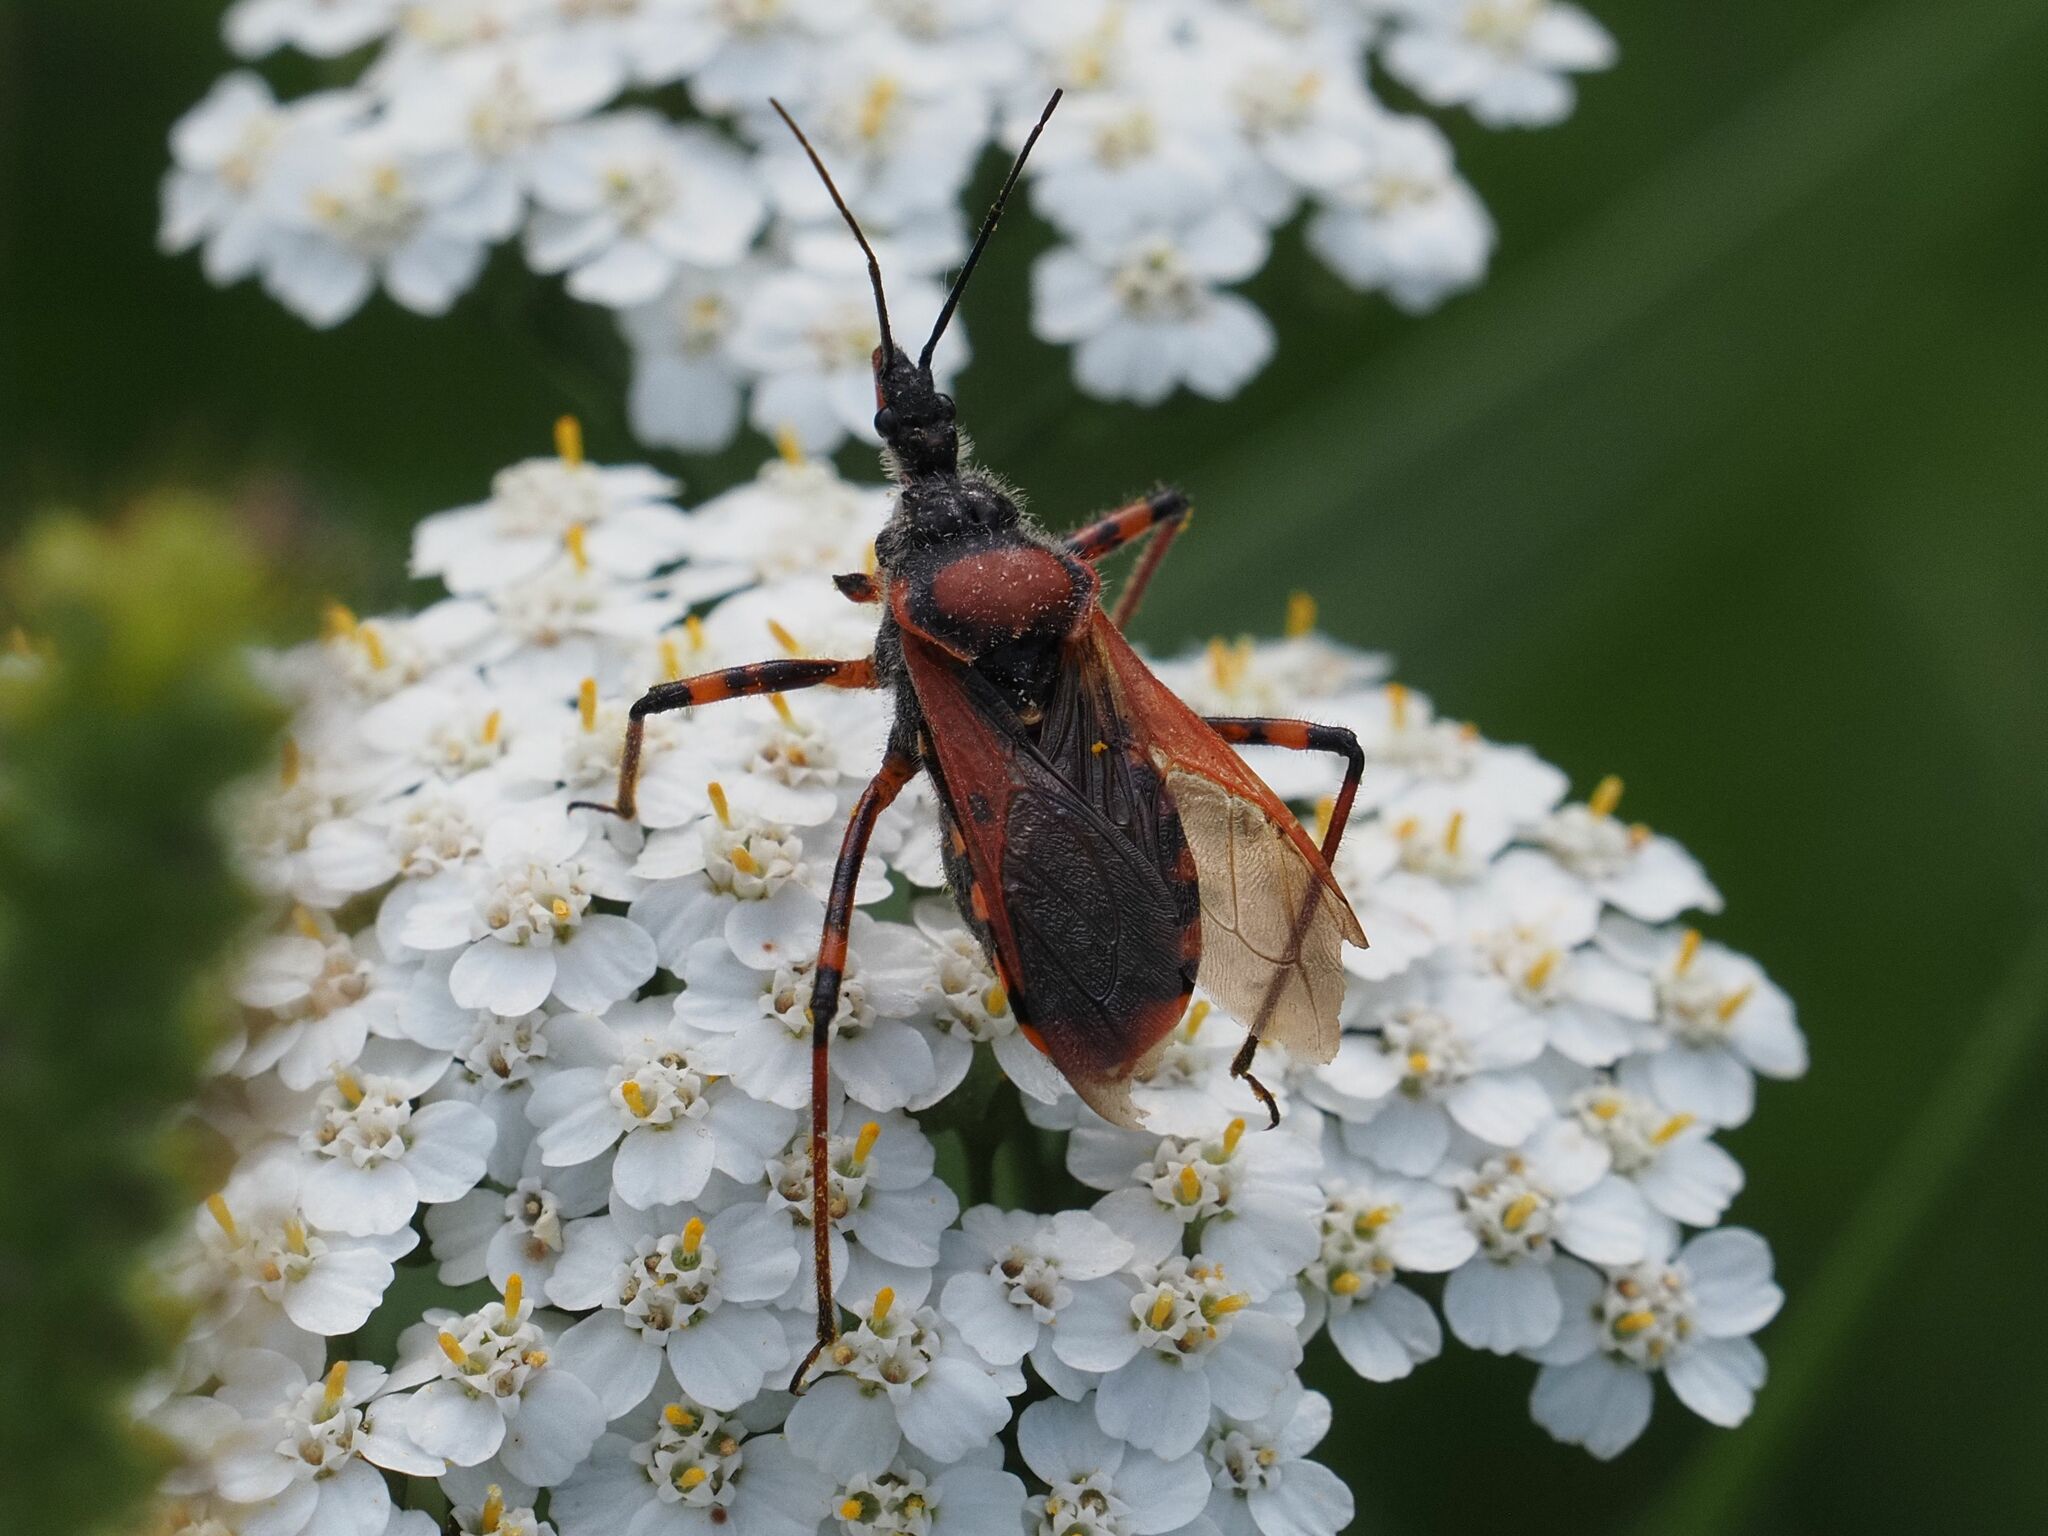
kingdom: Animalia
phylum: Arthropoda
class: Insecta
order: Hemiptera
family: Reduviidae
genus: Rhynocoris
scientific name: Rhynocoris iracundus
